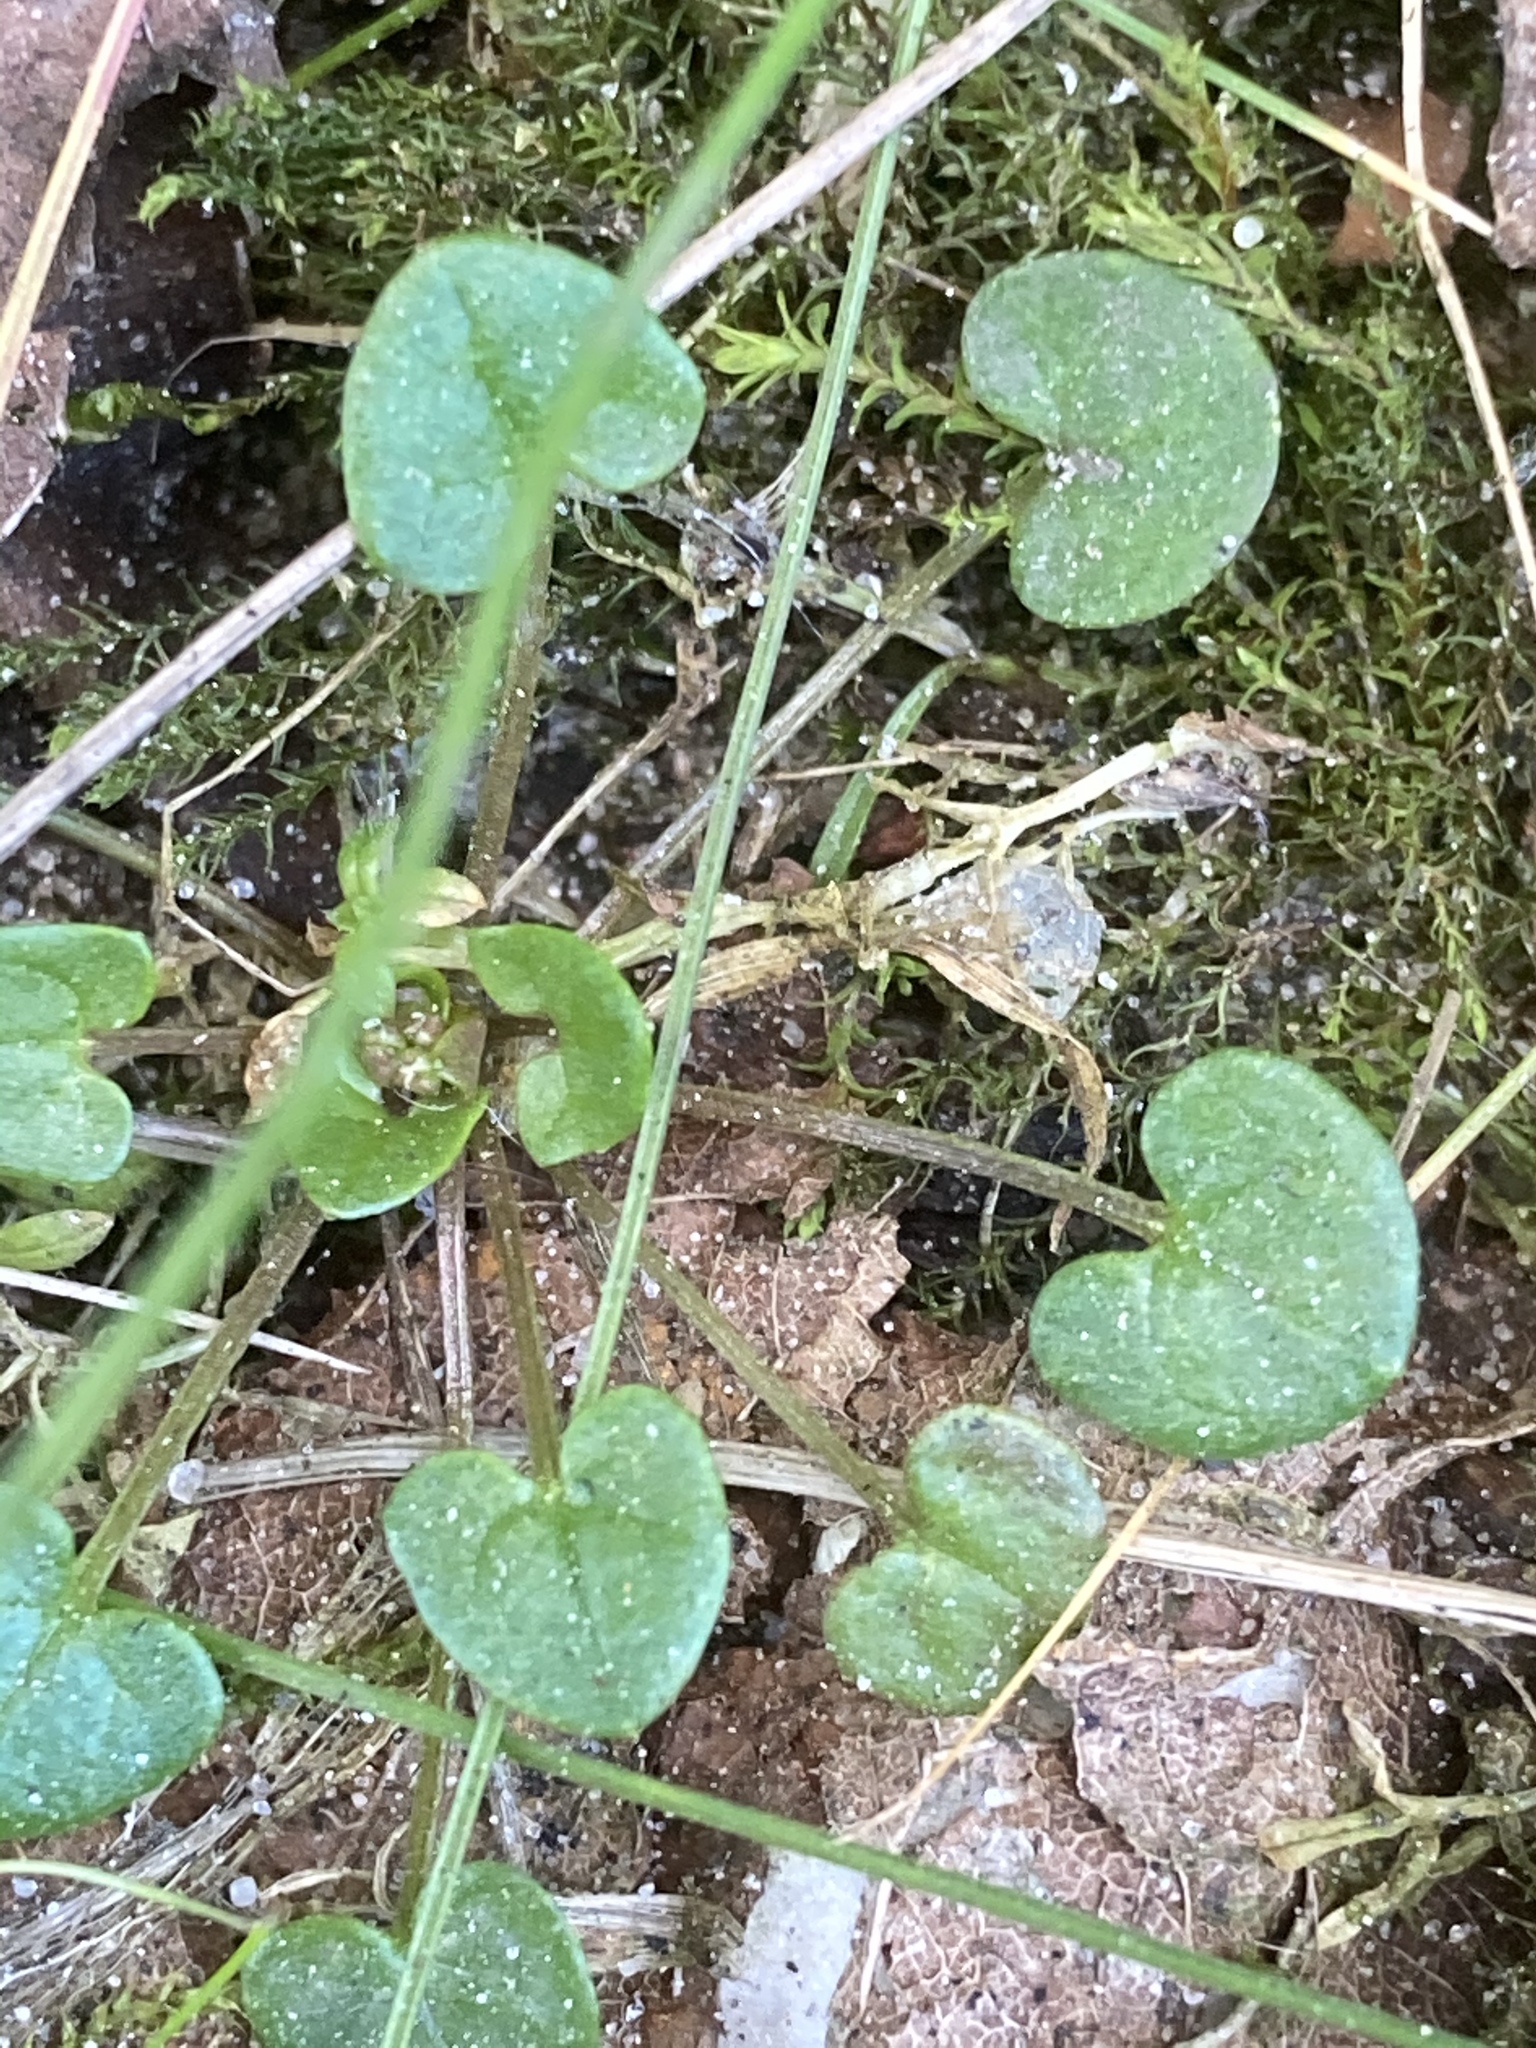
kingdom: Plantae
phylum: Tracheophyta
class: Magnoliopsida
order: Brassicales
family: Brassicaceae
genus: Cochlearia
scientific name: Cochlearia officinalis
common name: Scurvy-grass
